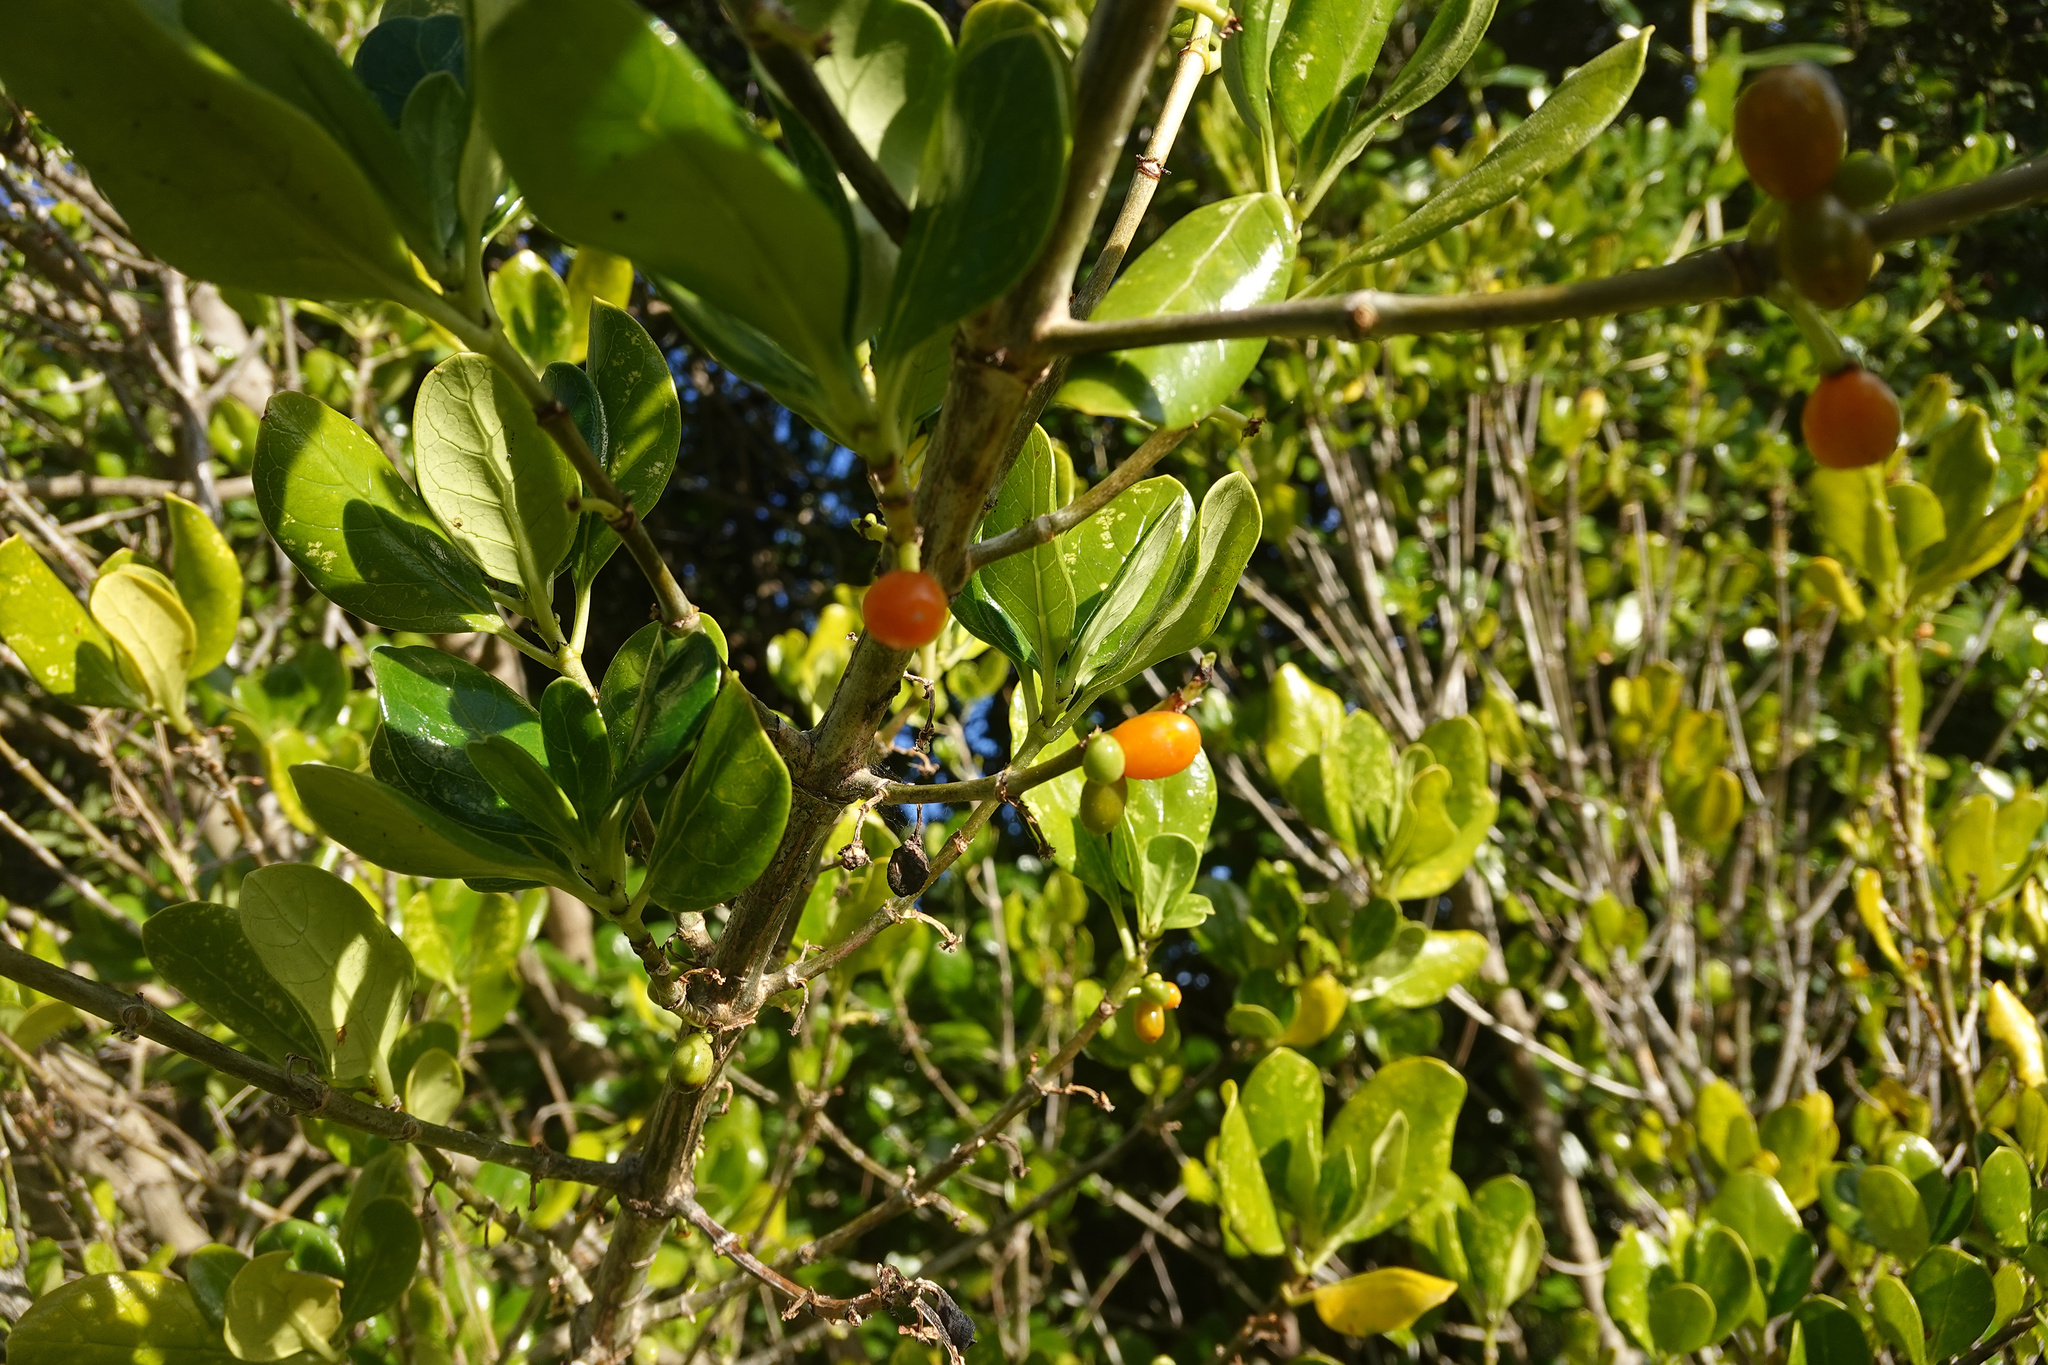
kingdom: Plantae
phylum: Tracheophyta
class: Magnoliopsida
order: Gentianales
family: Rubiaceae
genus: Coprosma
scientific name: Coprosma repens
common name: Tree bedstraw
